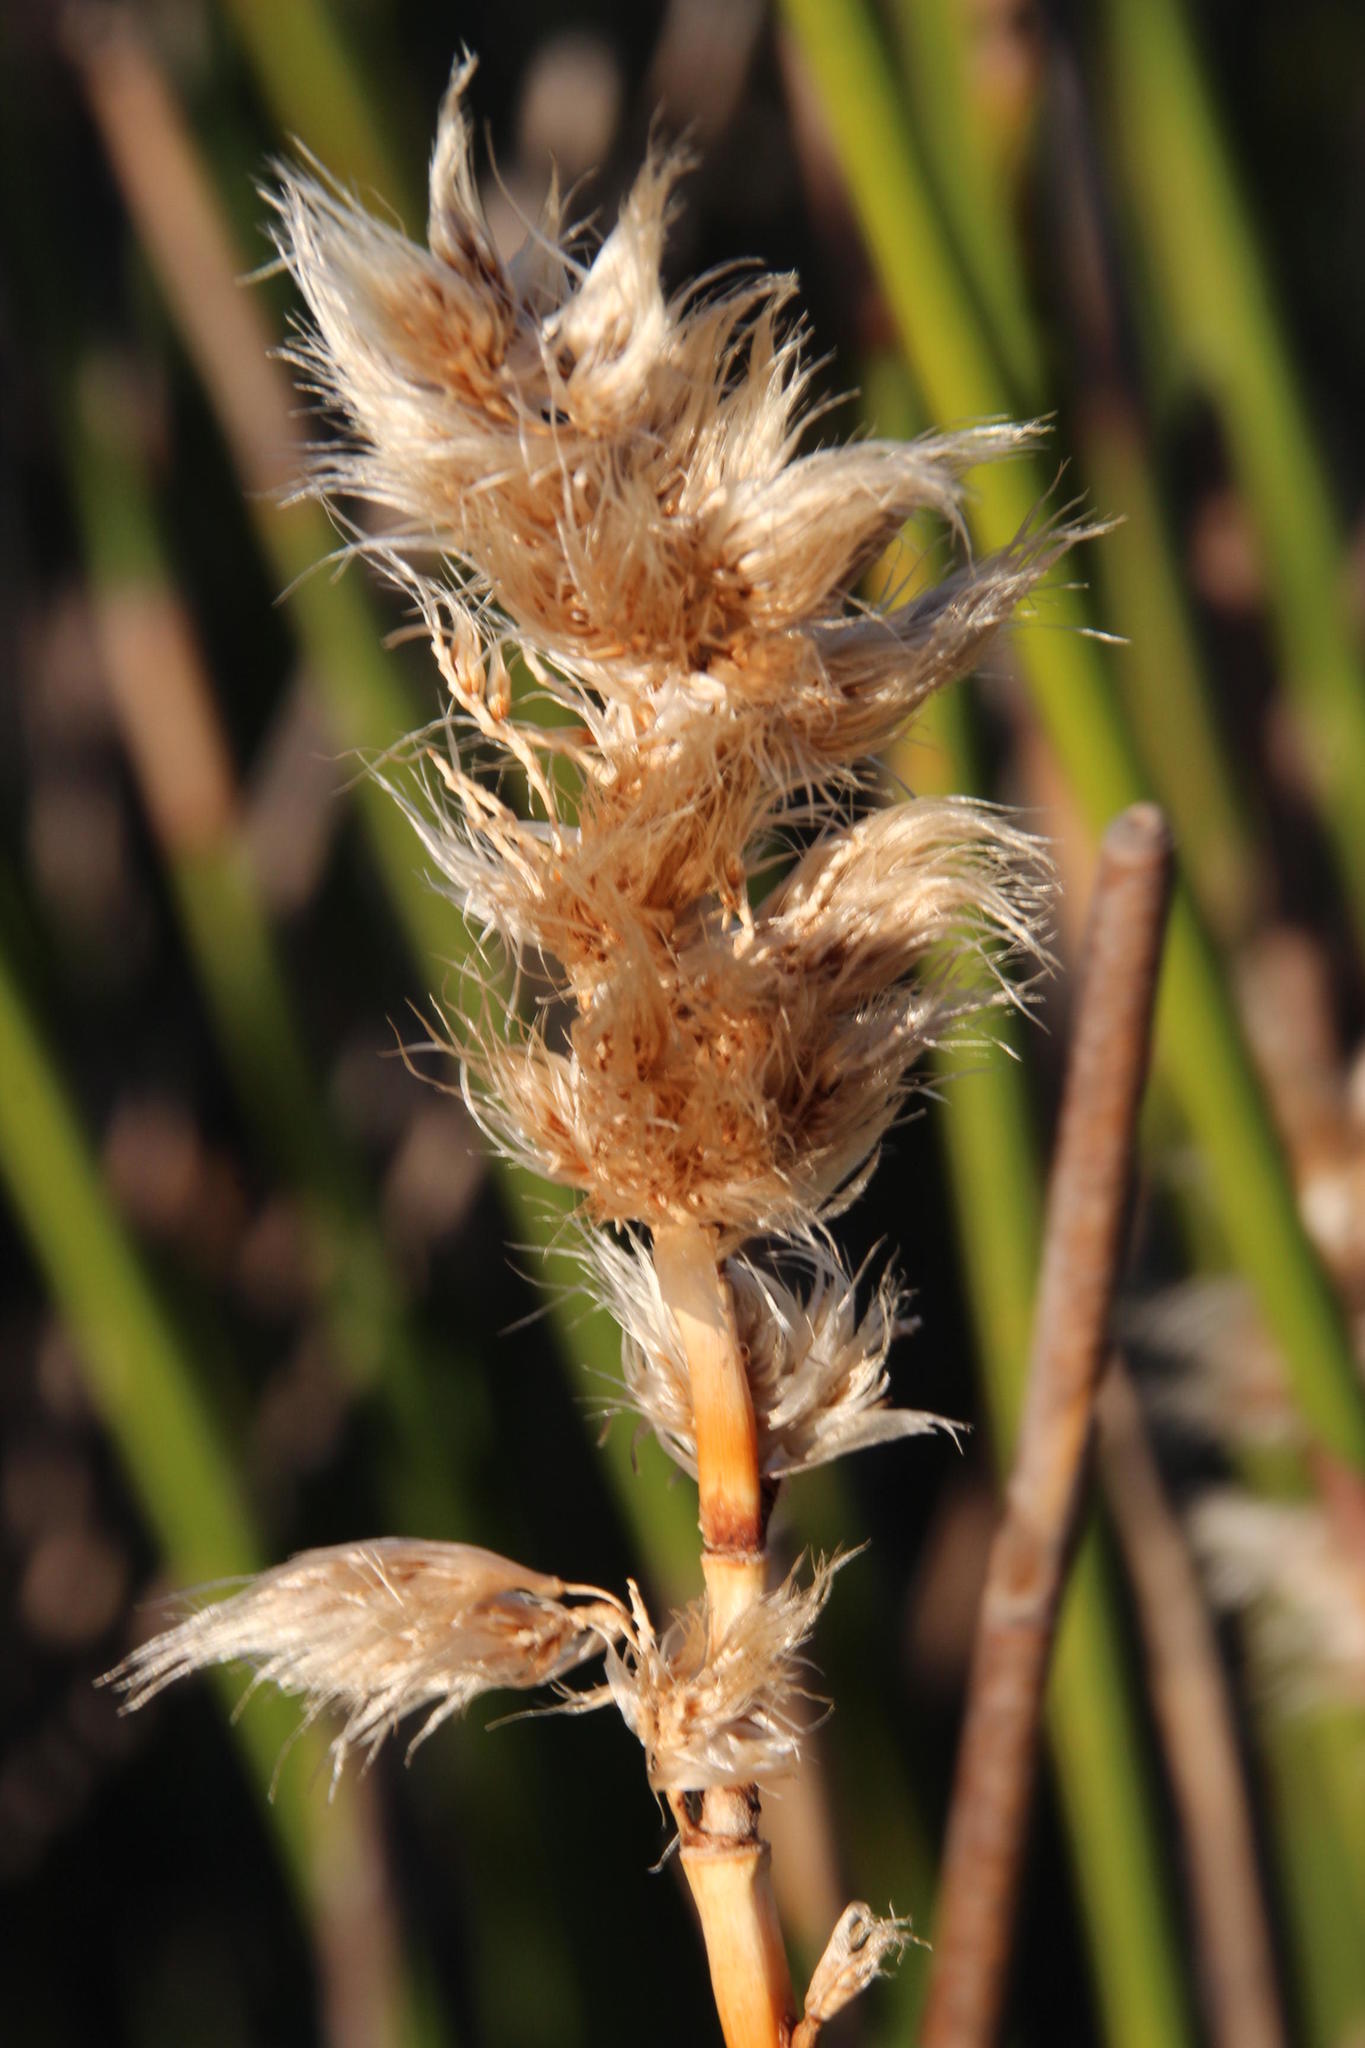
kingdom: Plantae
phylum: Tracheophyta
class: Liliopsida
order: Poales
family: Restionaceae
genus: Ceratocaryum
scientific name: Ceratocaryum decipiens
